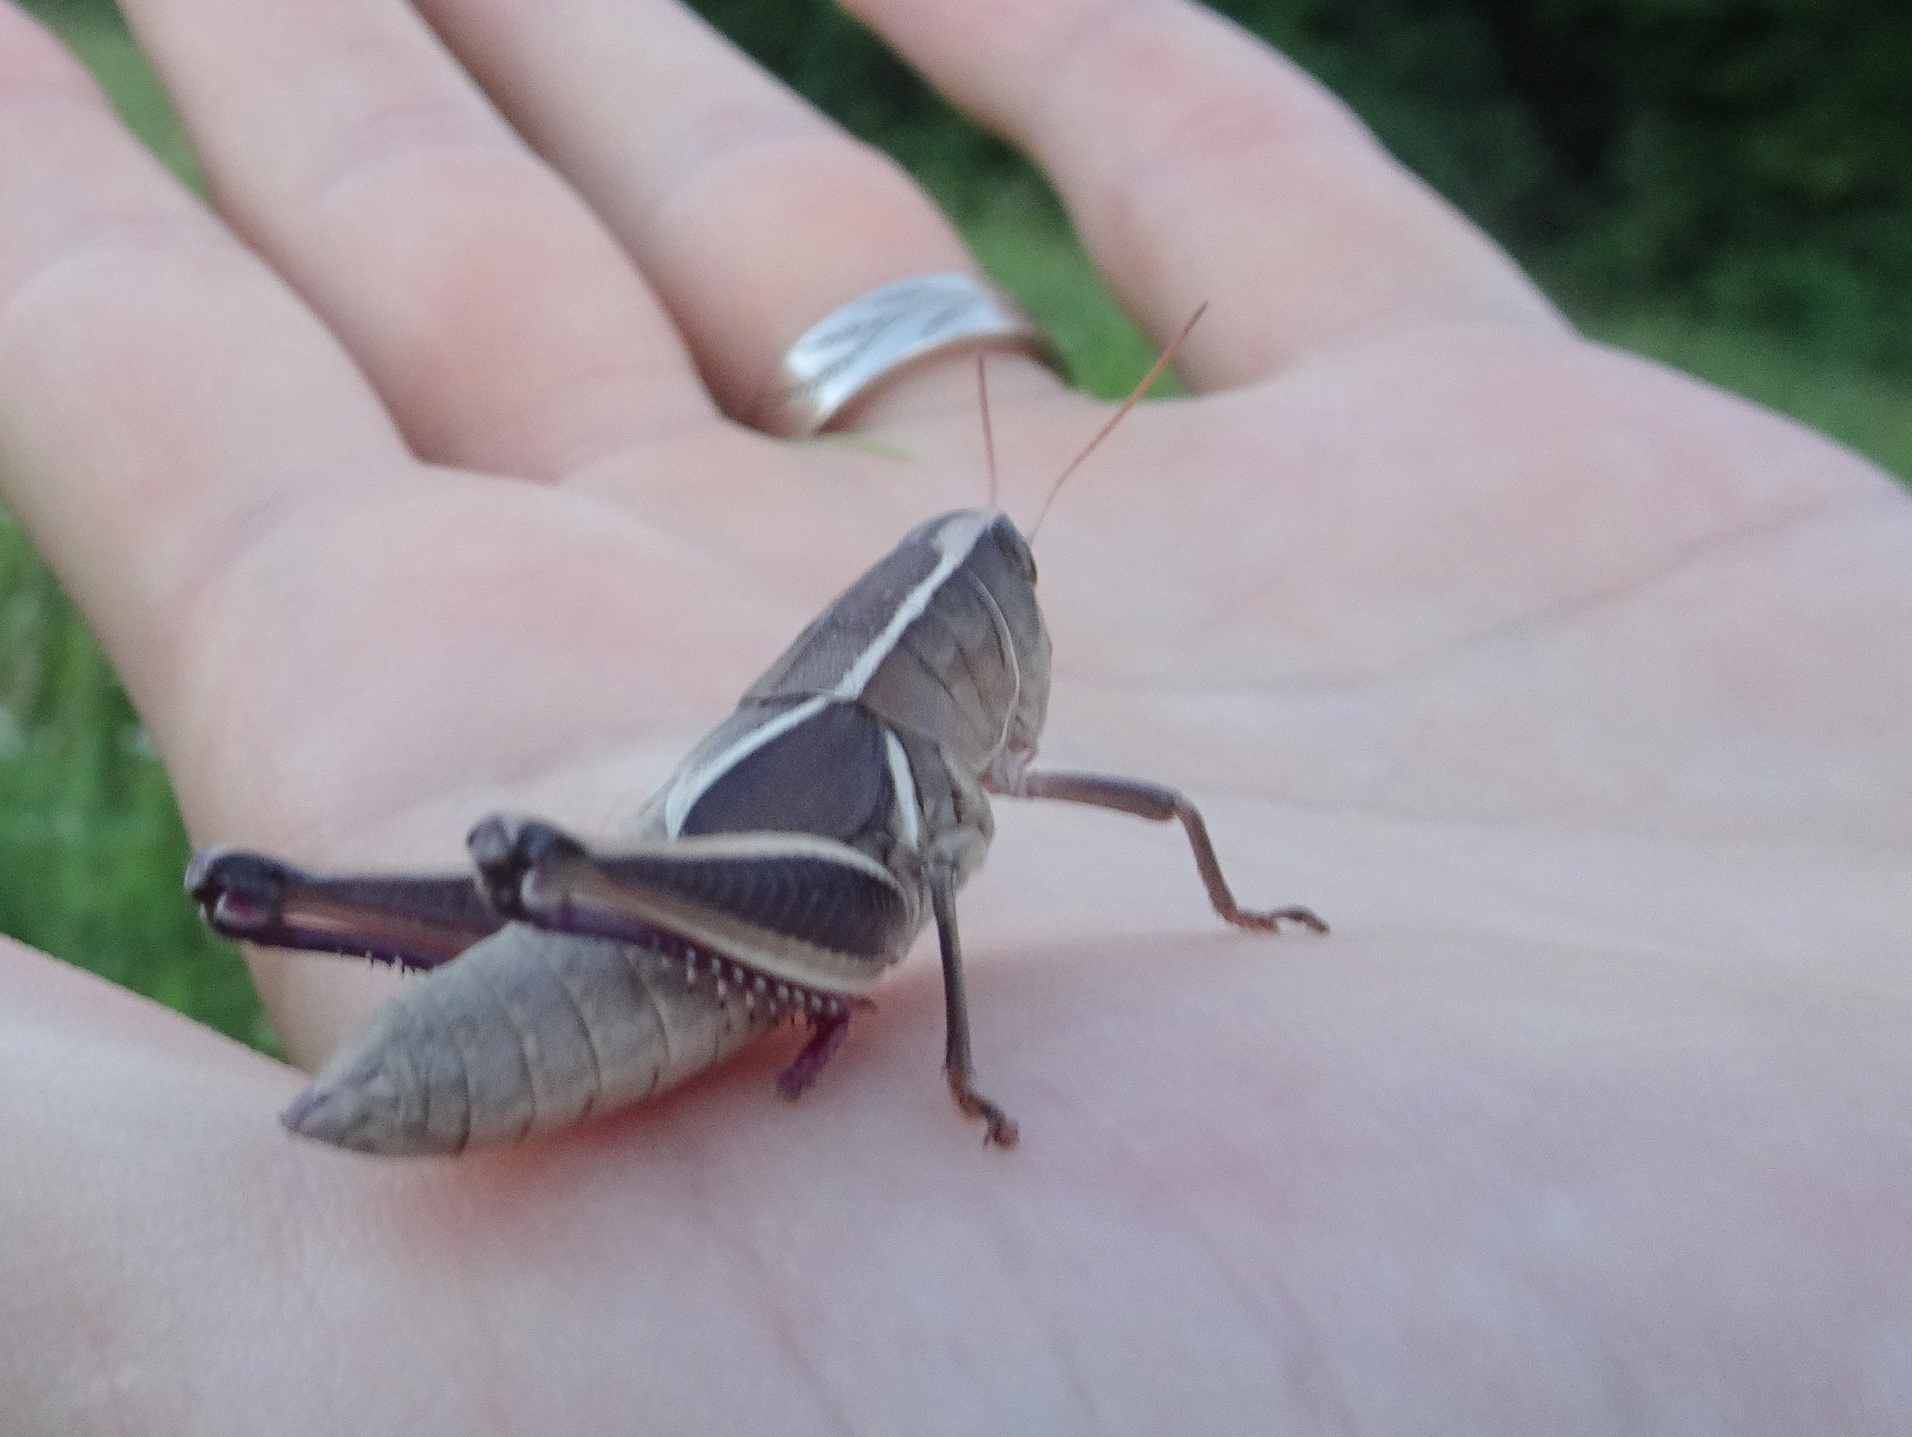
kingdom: Animalia
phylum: Arthropoda
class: Insecta
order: Orthoptera
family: Acrididae
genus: Paratylotropidia
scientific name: Paratylotropidia brunneri
